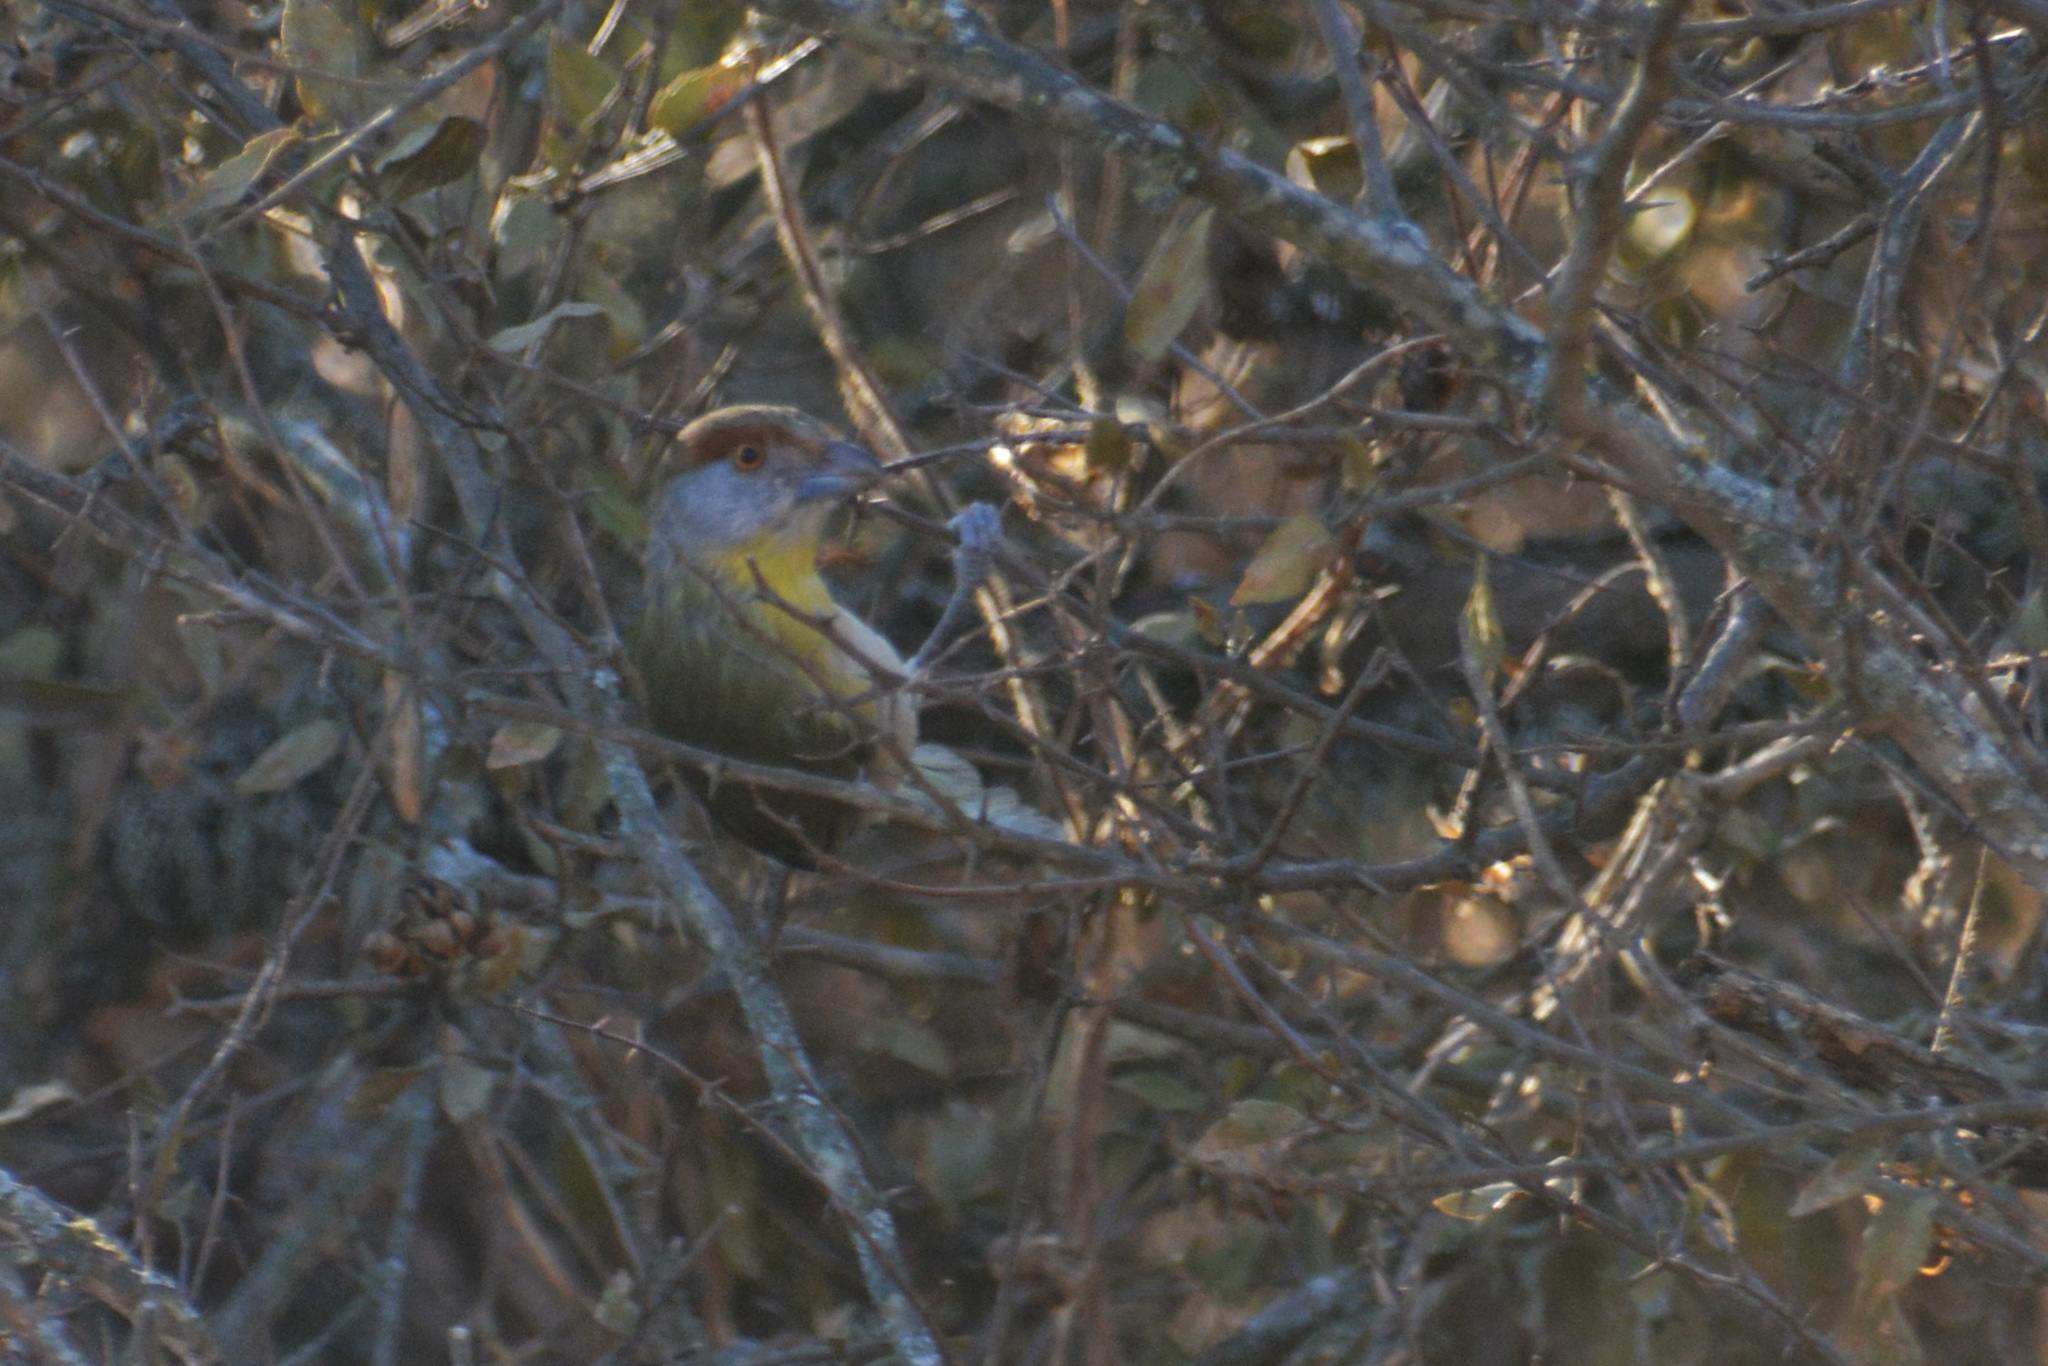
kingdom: Animalia
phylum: Chordata
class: Aves
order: Passeriformes
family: Vireonidae
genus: Cyclarhis
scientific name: Cyclarhis gujanensis
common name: Rufous-browed peppershrike
